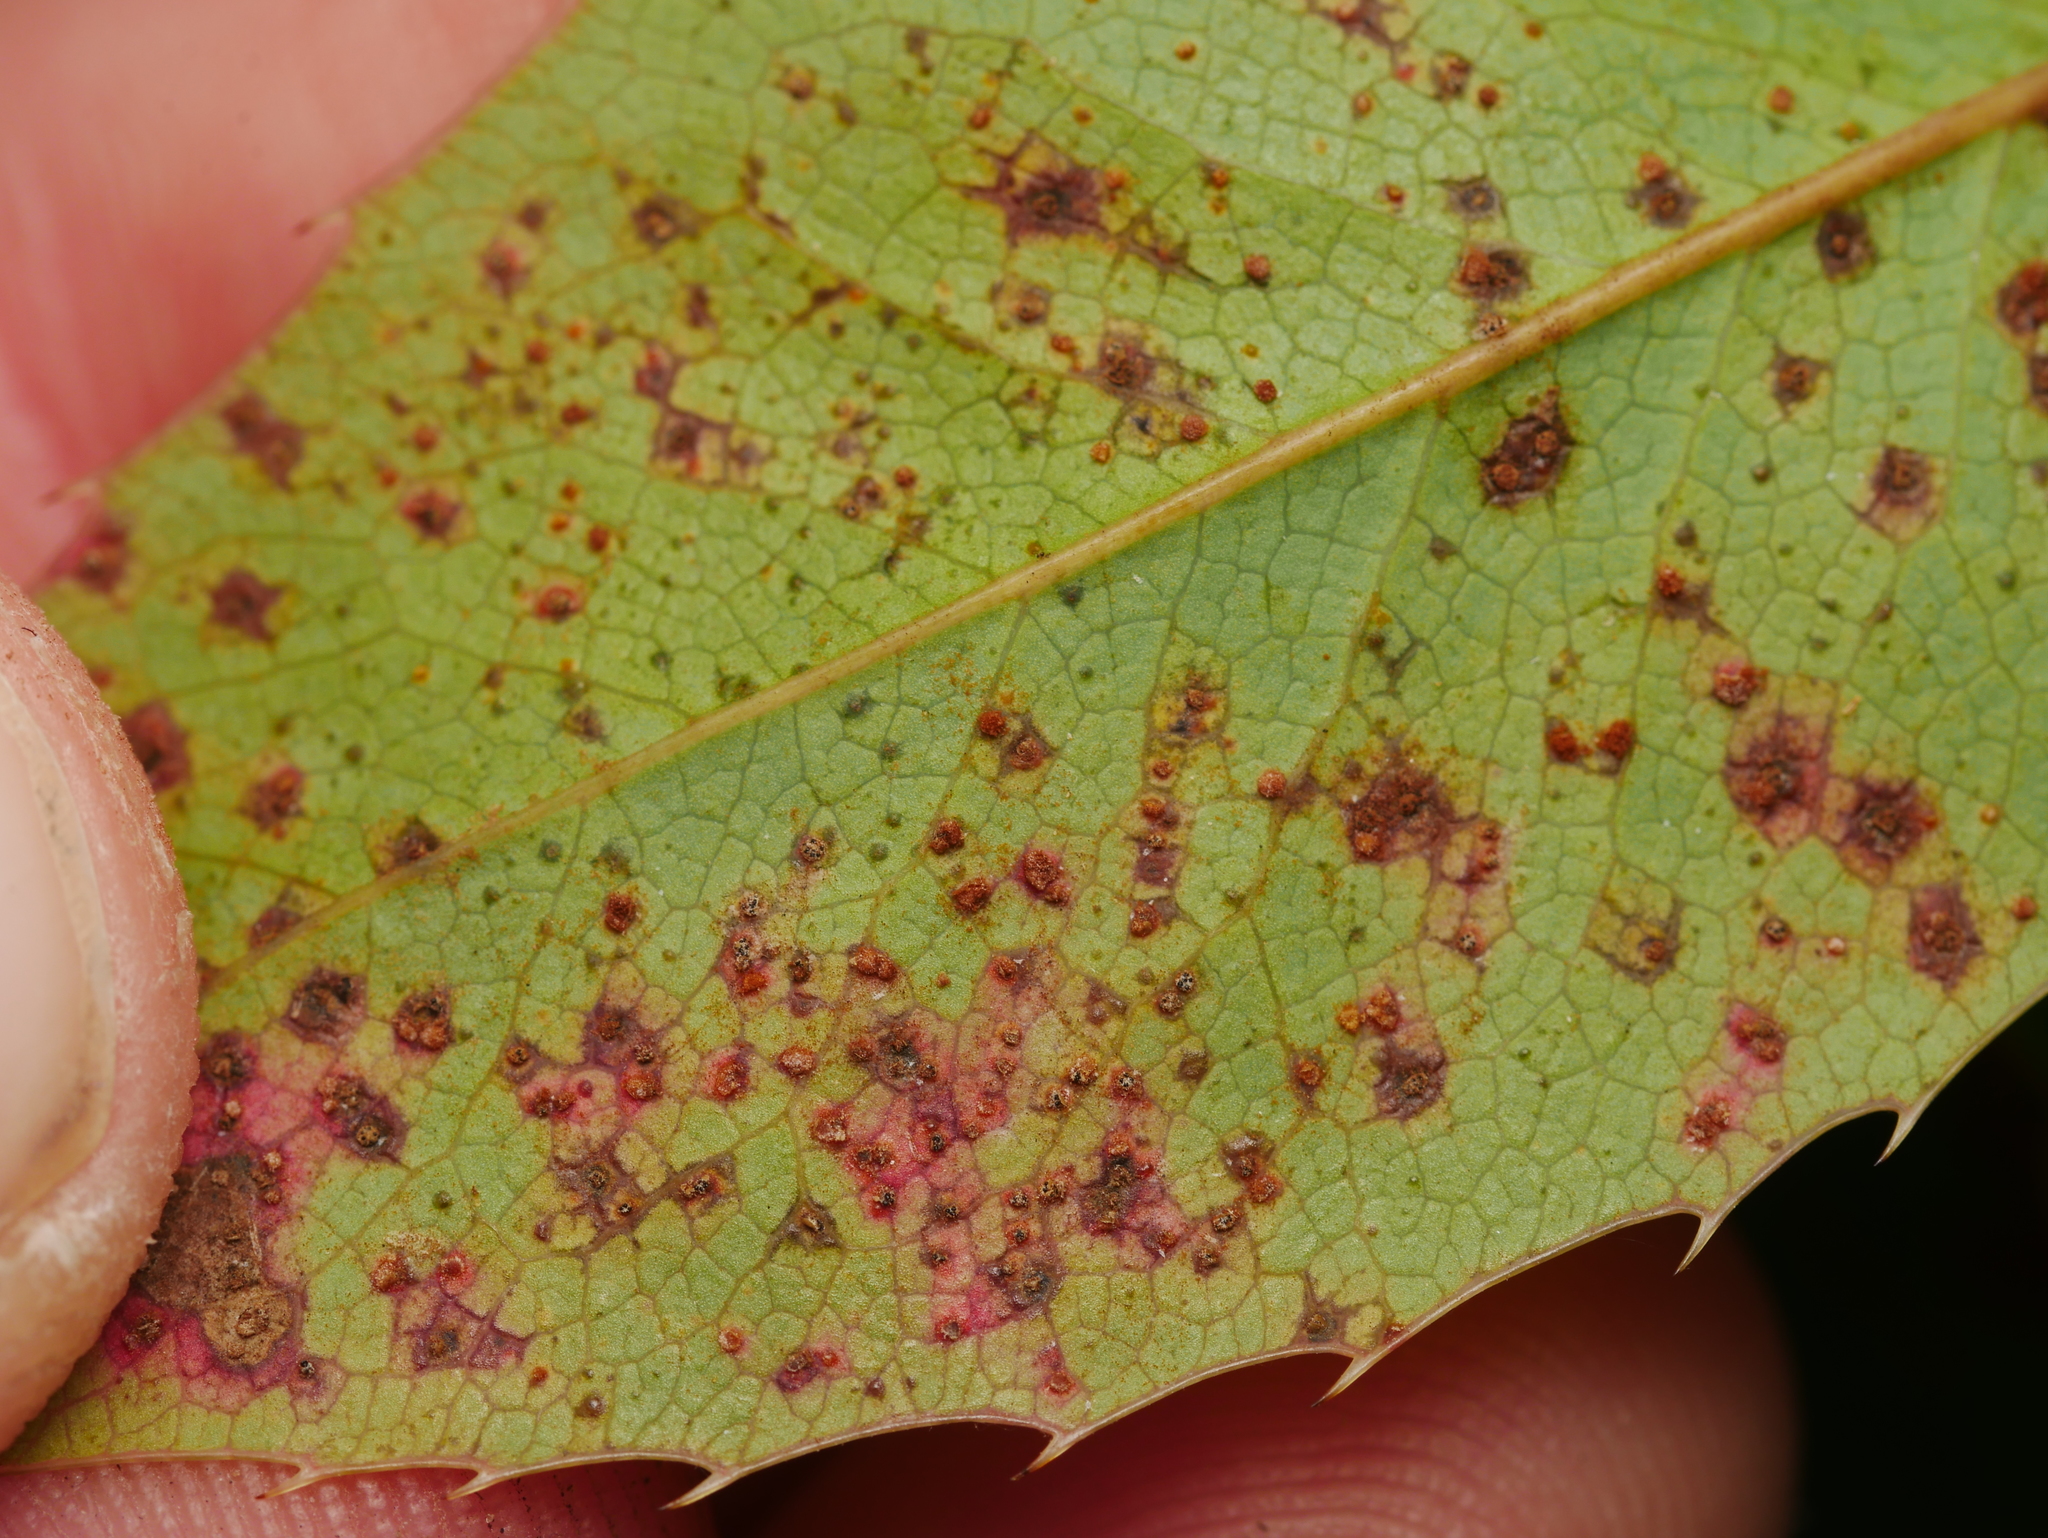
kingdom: Fungi
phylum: Basidiomycota
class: Pucciniomycetes
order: Pucciniales
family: Pucciniaceae
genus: Cumminsiella
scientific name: Cumminsiella mirabilissima
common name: Mahonia rust
